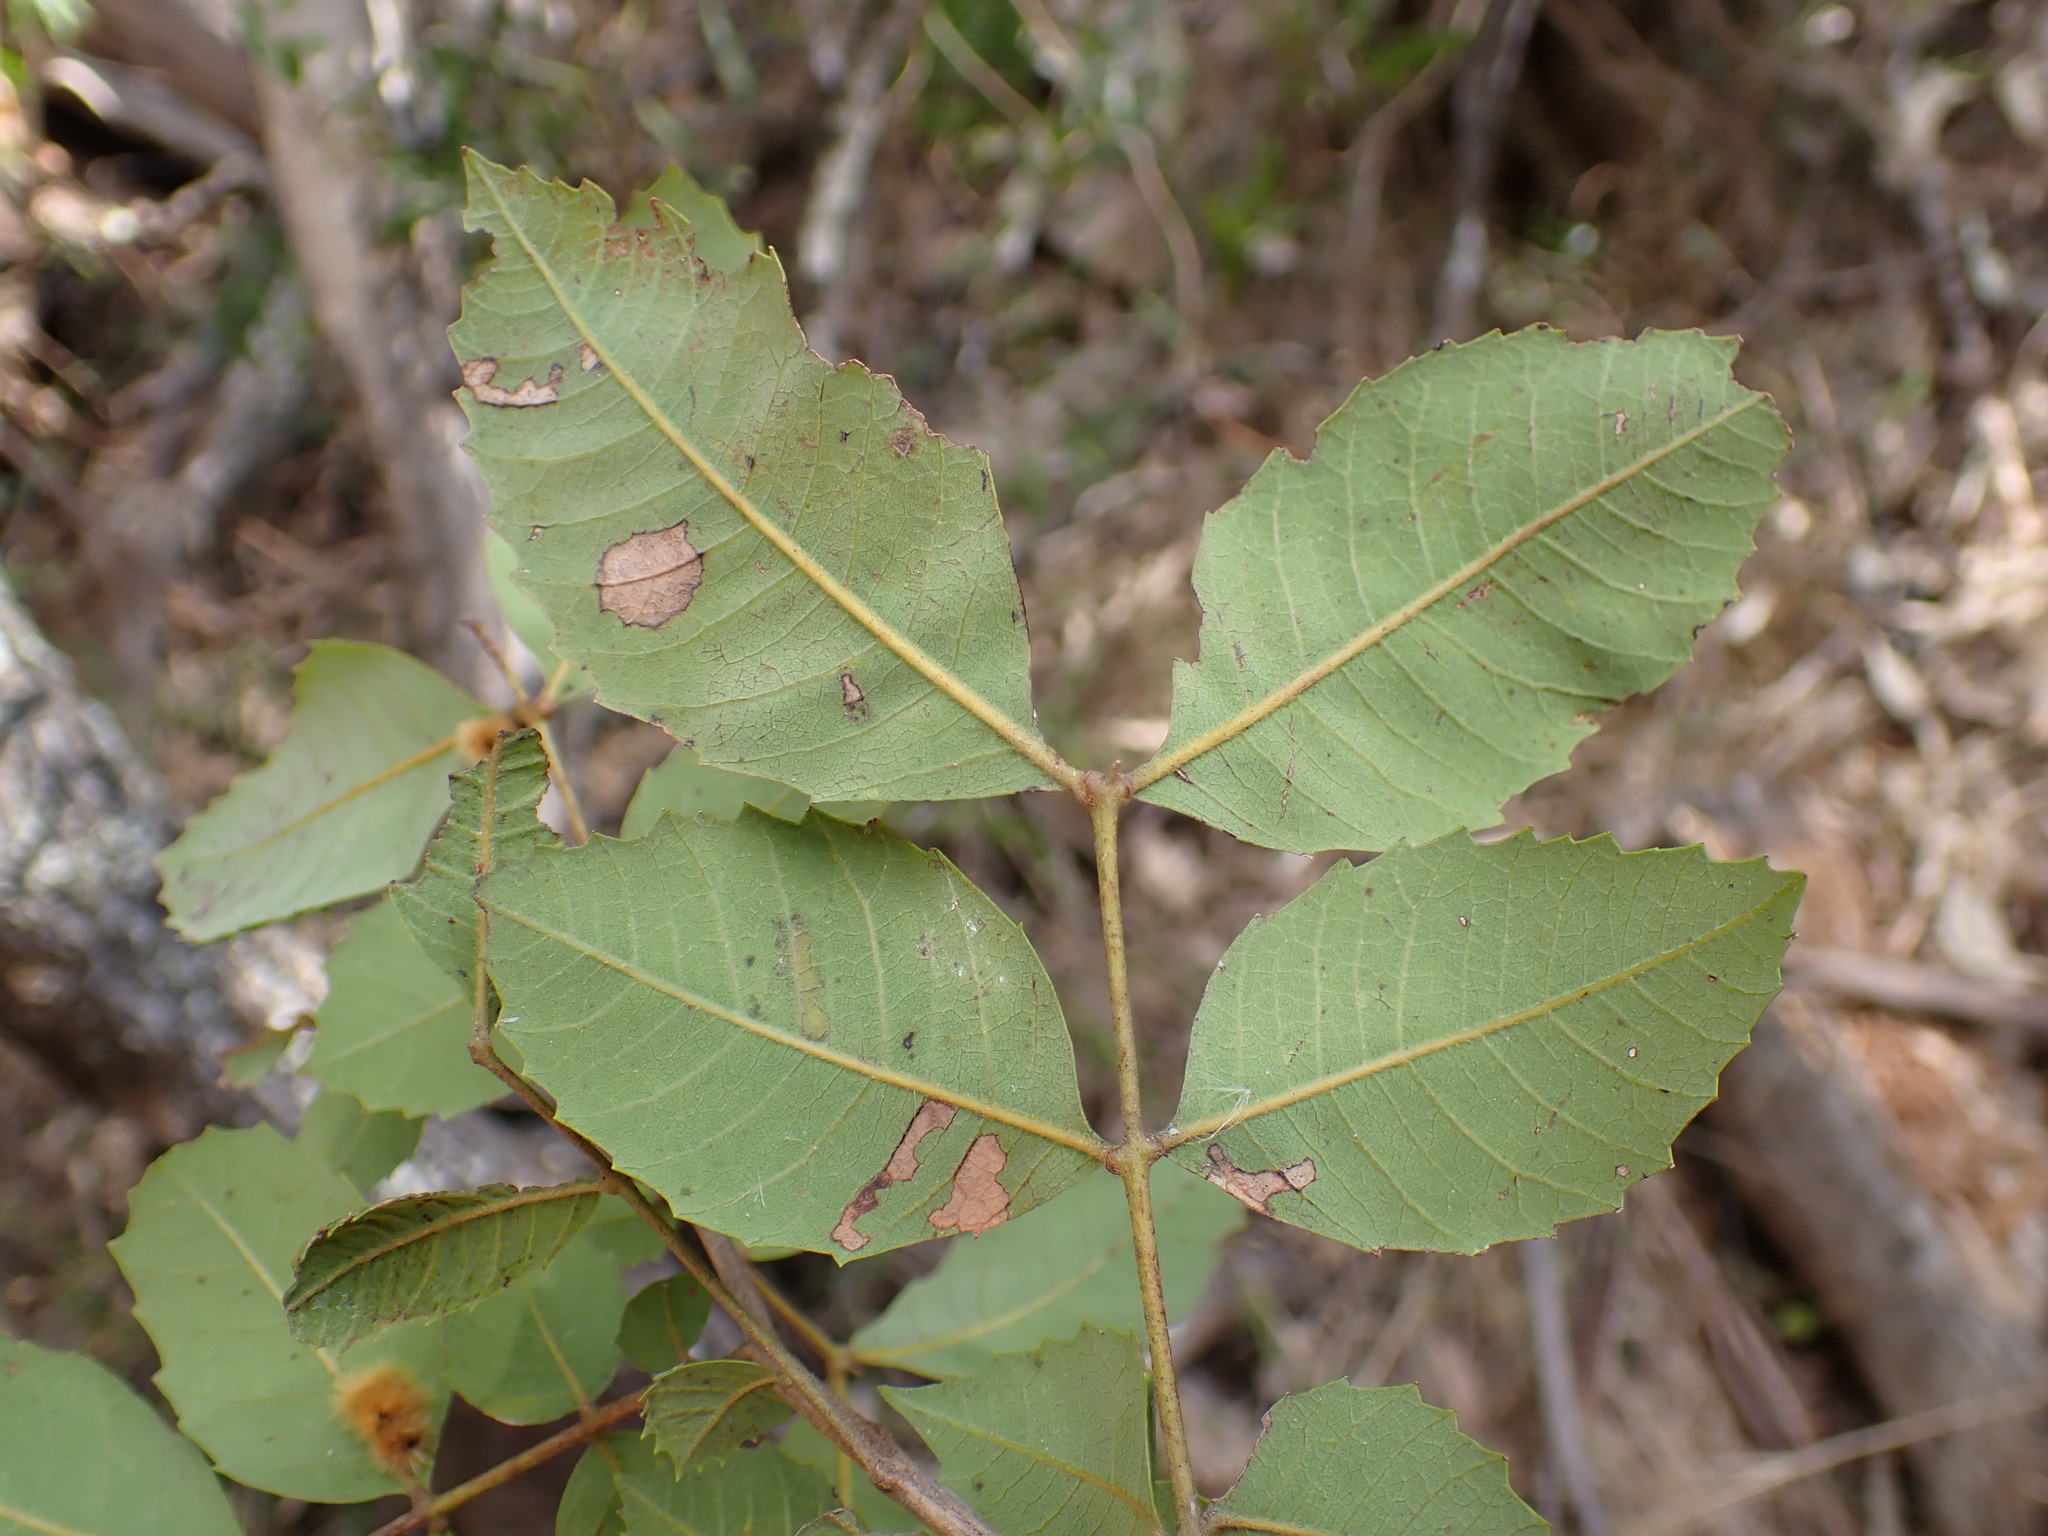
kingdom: Plantae
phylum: Tracheophyta
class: Magnoliopsida
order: Sapindales
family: Sapindaceae
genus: Alectryon
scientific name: Alectryon subdentatus
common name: Hard alectryon
